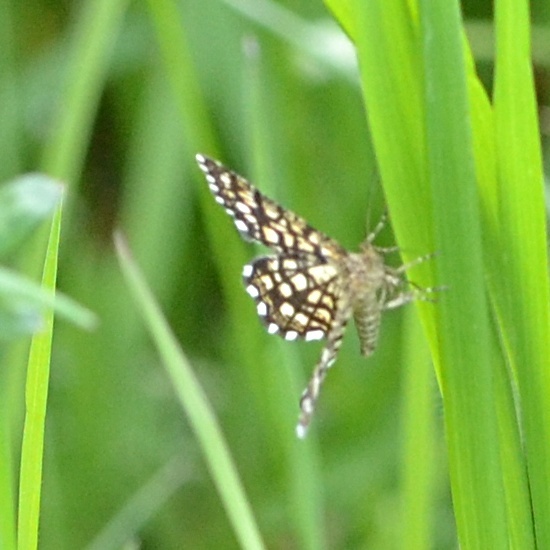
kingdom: Animalia
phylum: Arthropoda
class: Insecta
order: Lepidoptera
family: Geometridae
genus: Chiasmia
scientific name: Chiasmia clathrata
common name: Latticed heath
